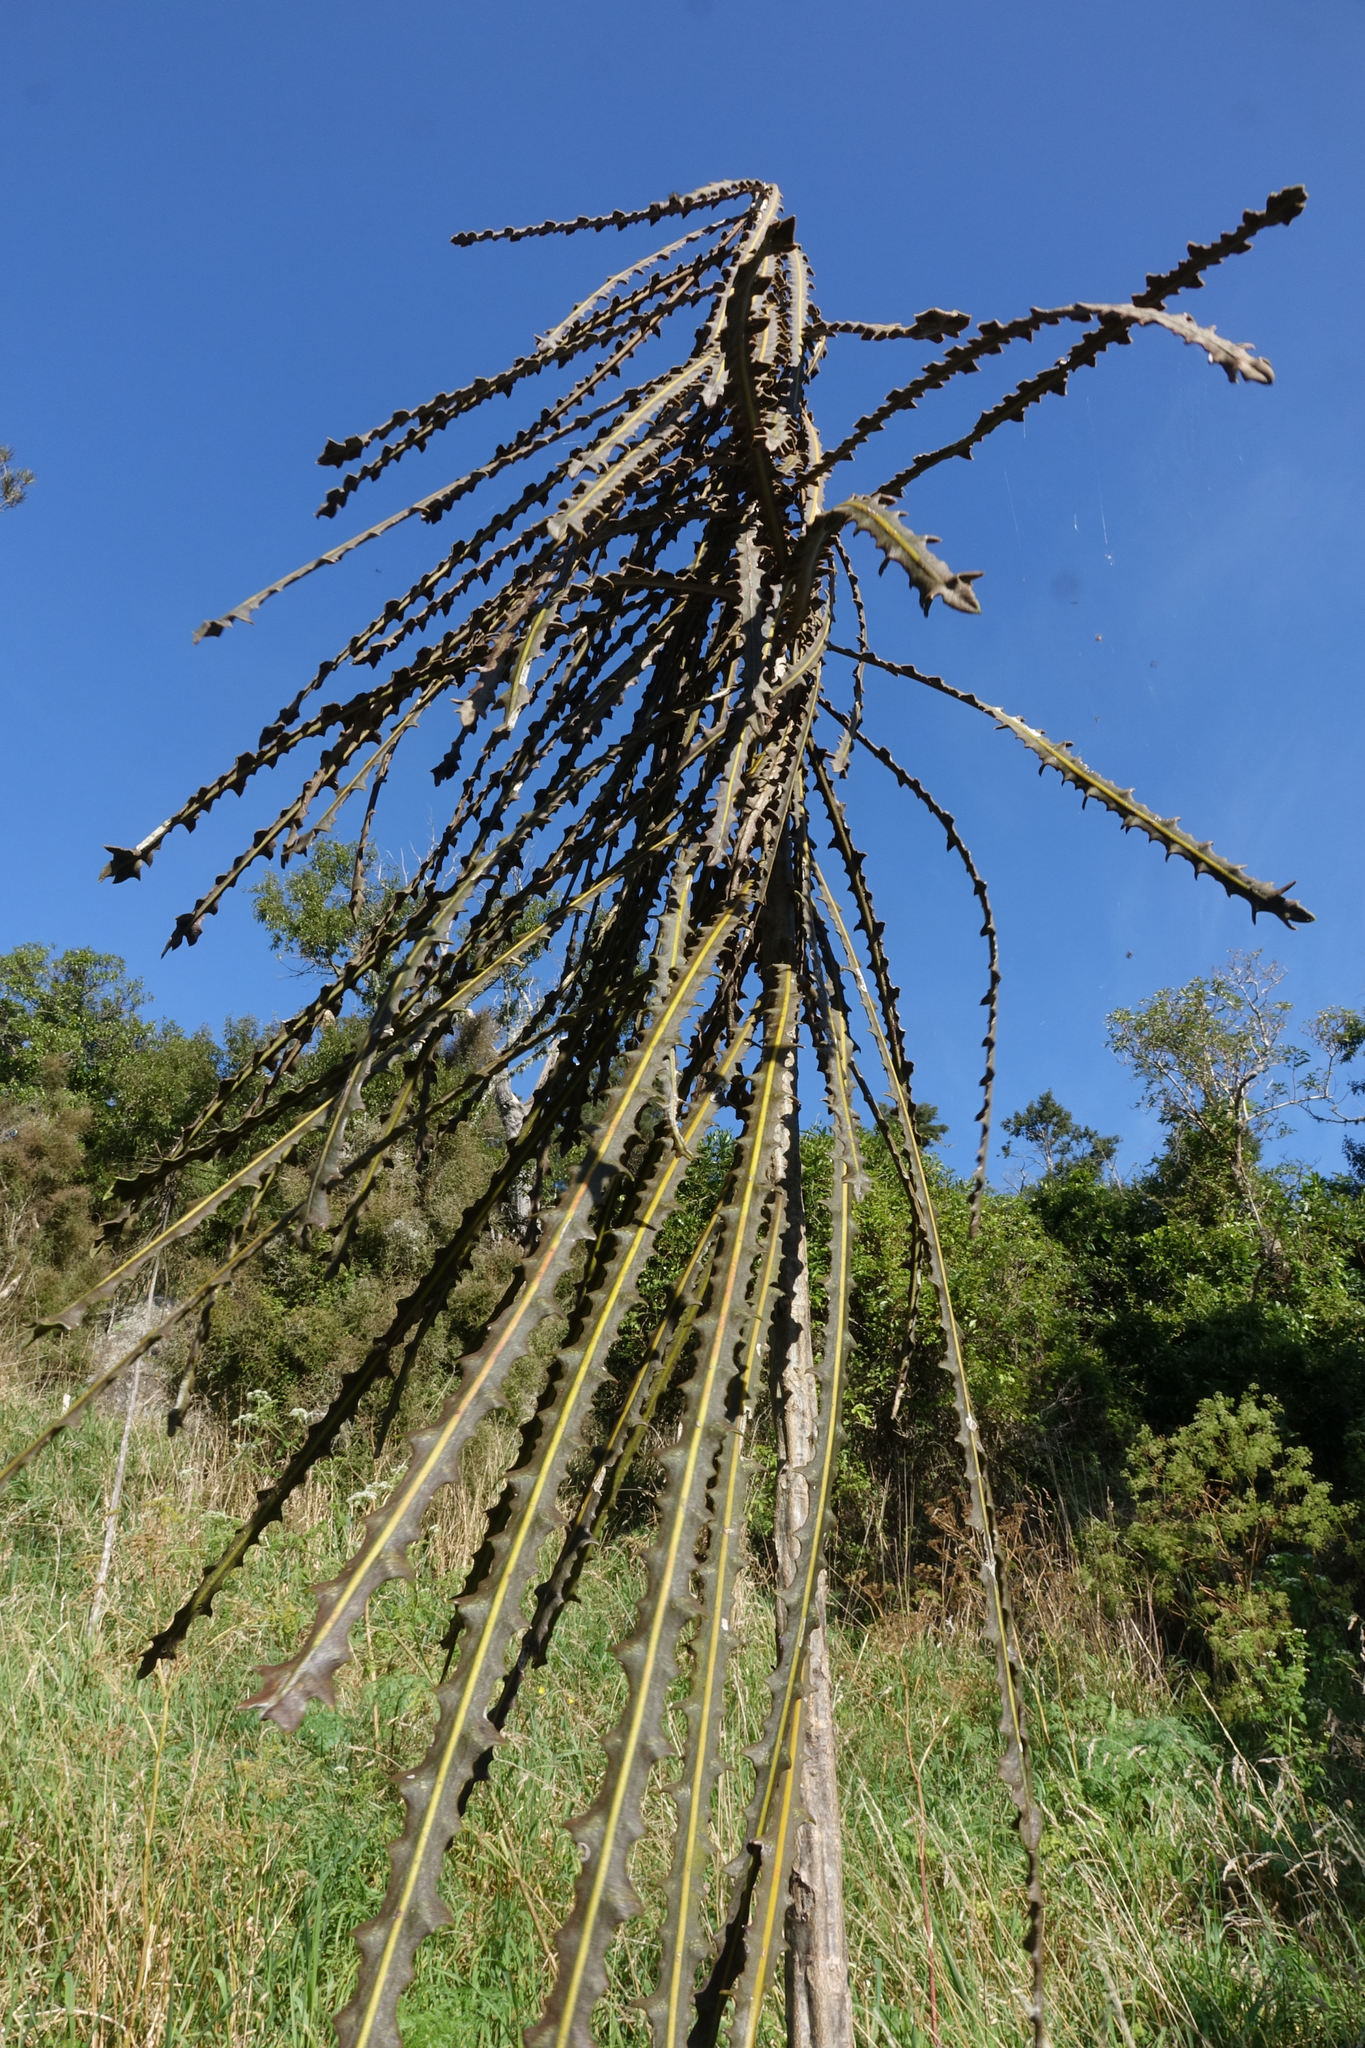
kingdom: Plantae
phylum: Tracheophyta
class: Magnoliopsida
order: Apiales
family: Araliaceae
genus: Pseudopanax
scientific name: Pseudopanax ferox
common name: Fierce lancewood
